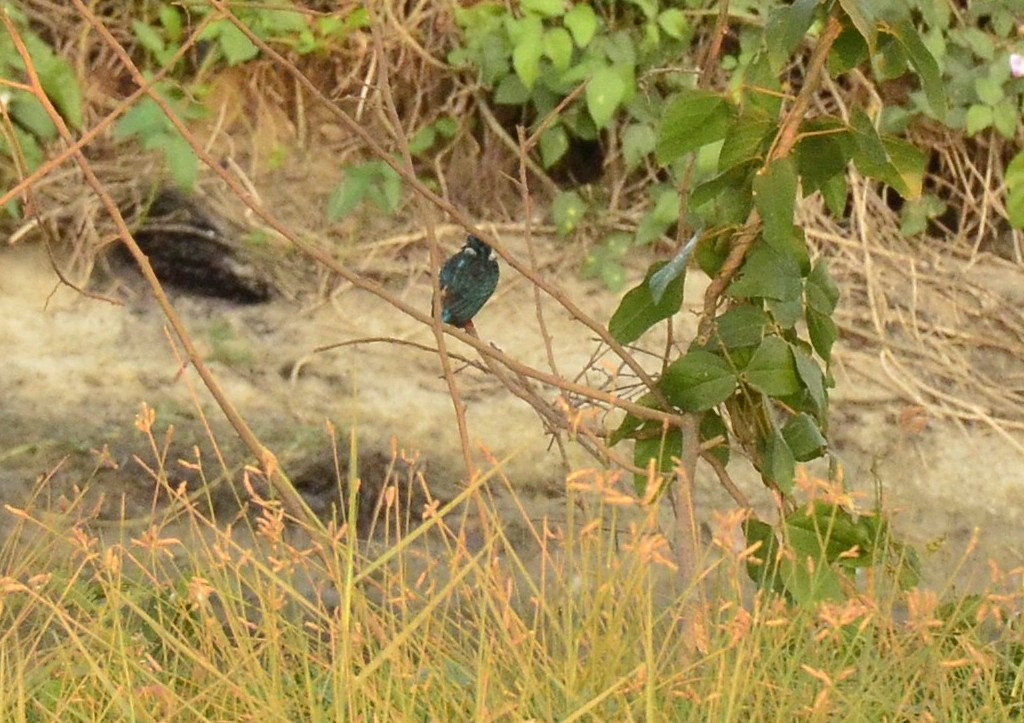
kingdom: Animalia
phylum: Chordata
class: Aves
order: Coraciiformes
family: Alcedinidae
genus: Alcedo
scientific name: Alcedo atthis
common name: Common kingfisher
